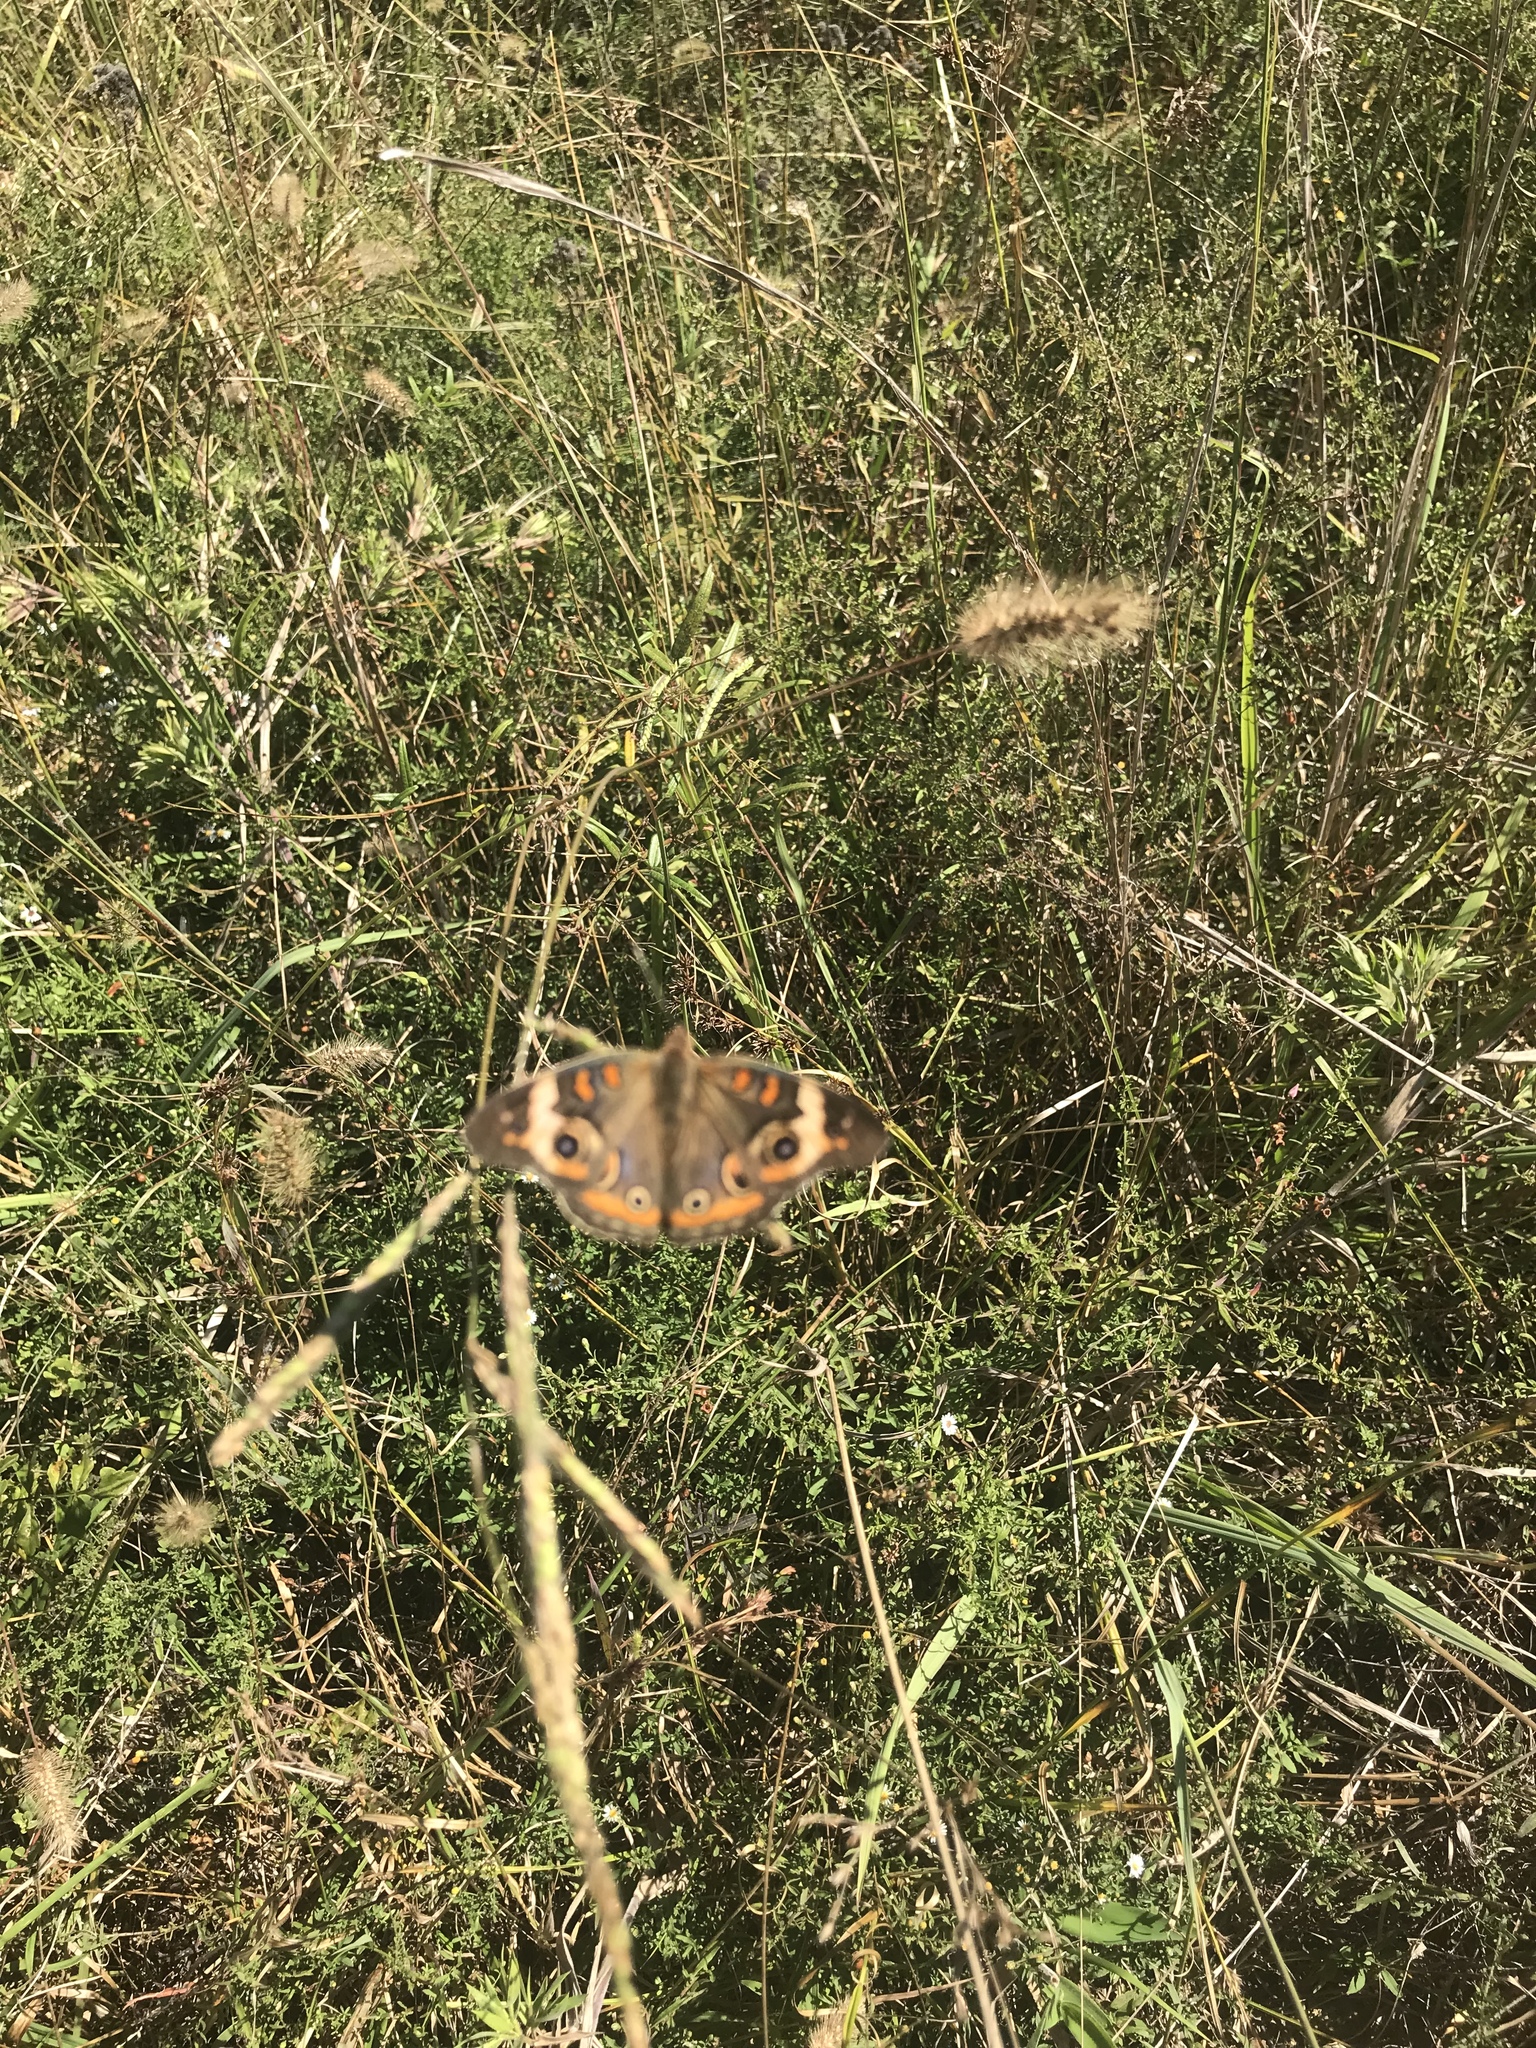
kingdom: Animalia
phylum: Arthropoda
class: Insecta
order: Lepidoptera
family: Nymphalidae
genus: Junonia
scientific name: Junonia coenia
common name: Common buckeye
